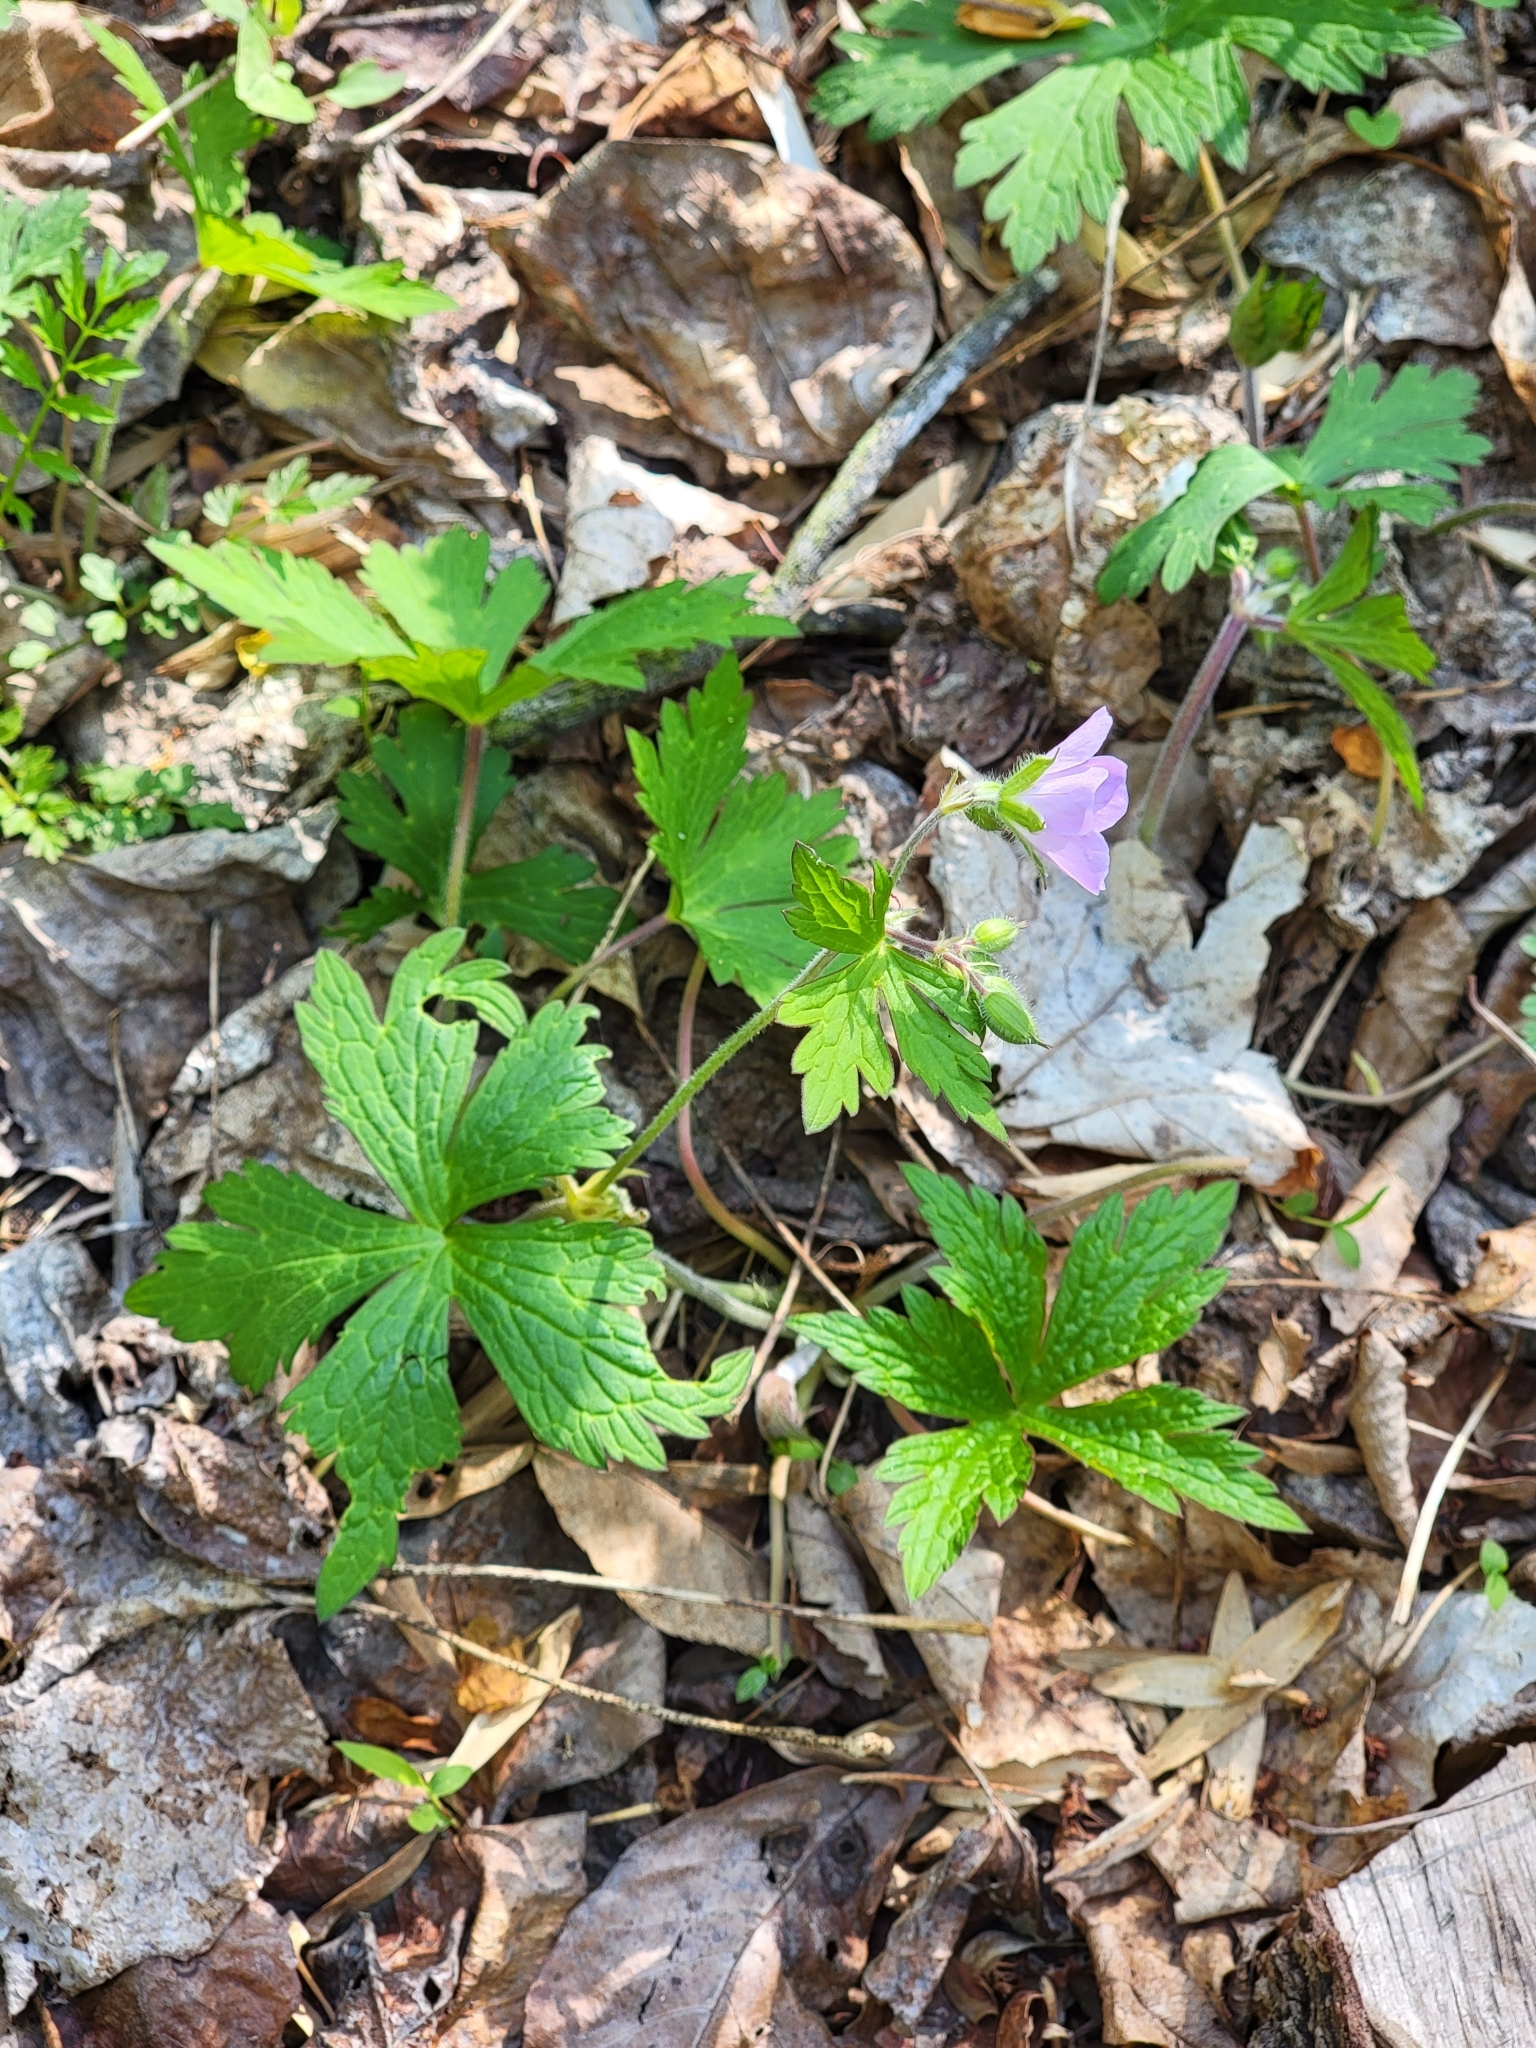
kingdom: Plantae
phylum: Tracheophyta
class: Magnoliopsida
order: Geraniales
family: Geraniaceae
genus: Geranium
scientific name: Geranium maculatum
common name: Spotted geranium
